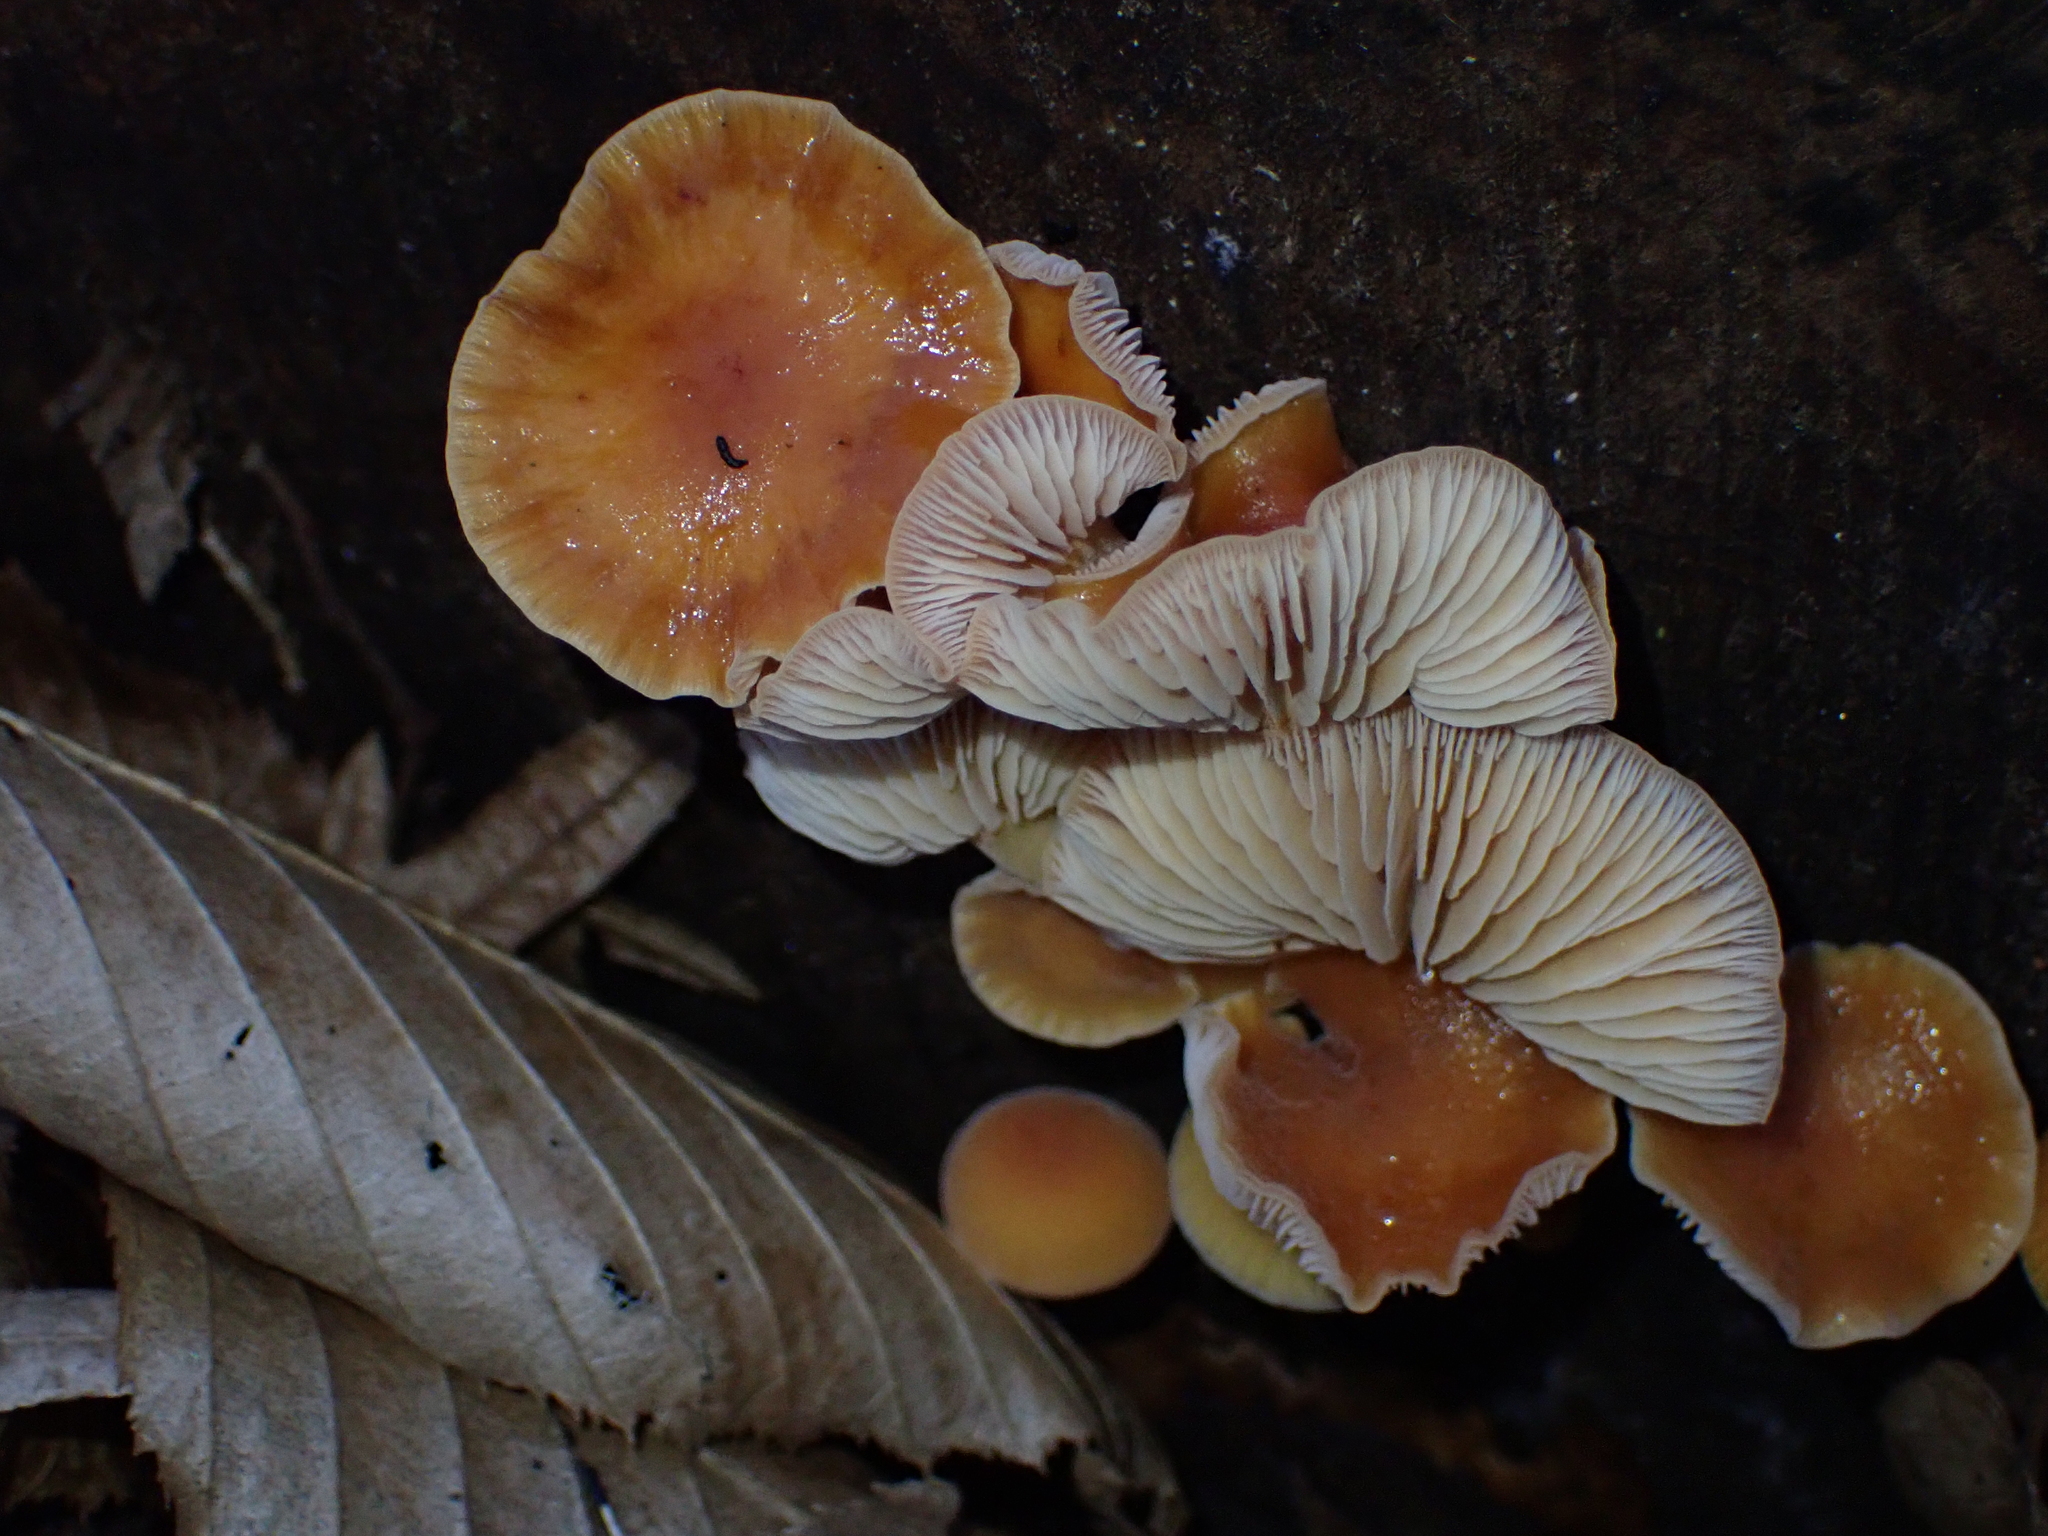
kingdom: Fungi
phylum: Basidiomycota
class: Agaricomycetes
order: Agaricales
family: Physalacriaceae
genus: Flammulina
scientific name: Flammulina
